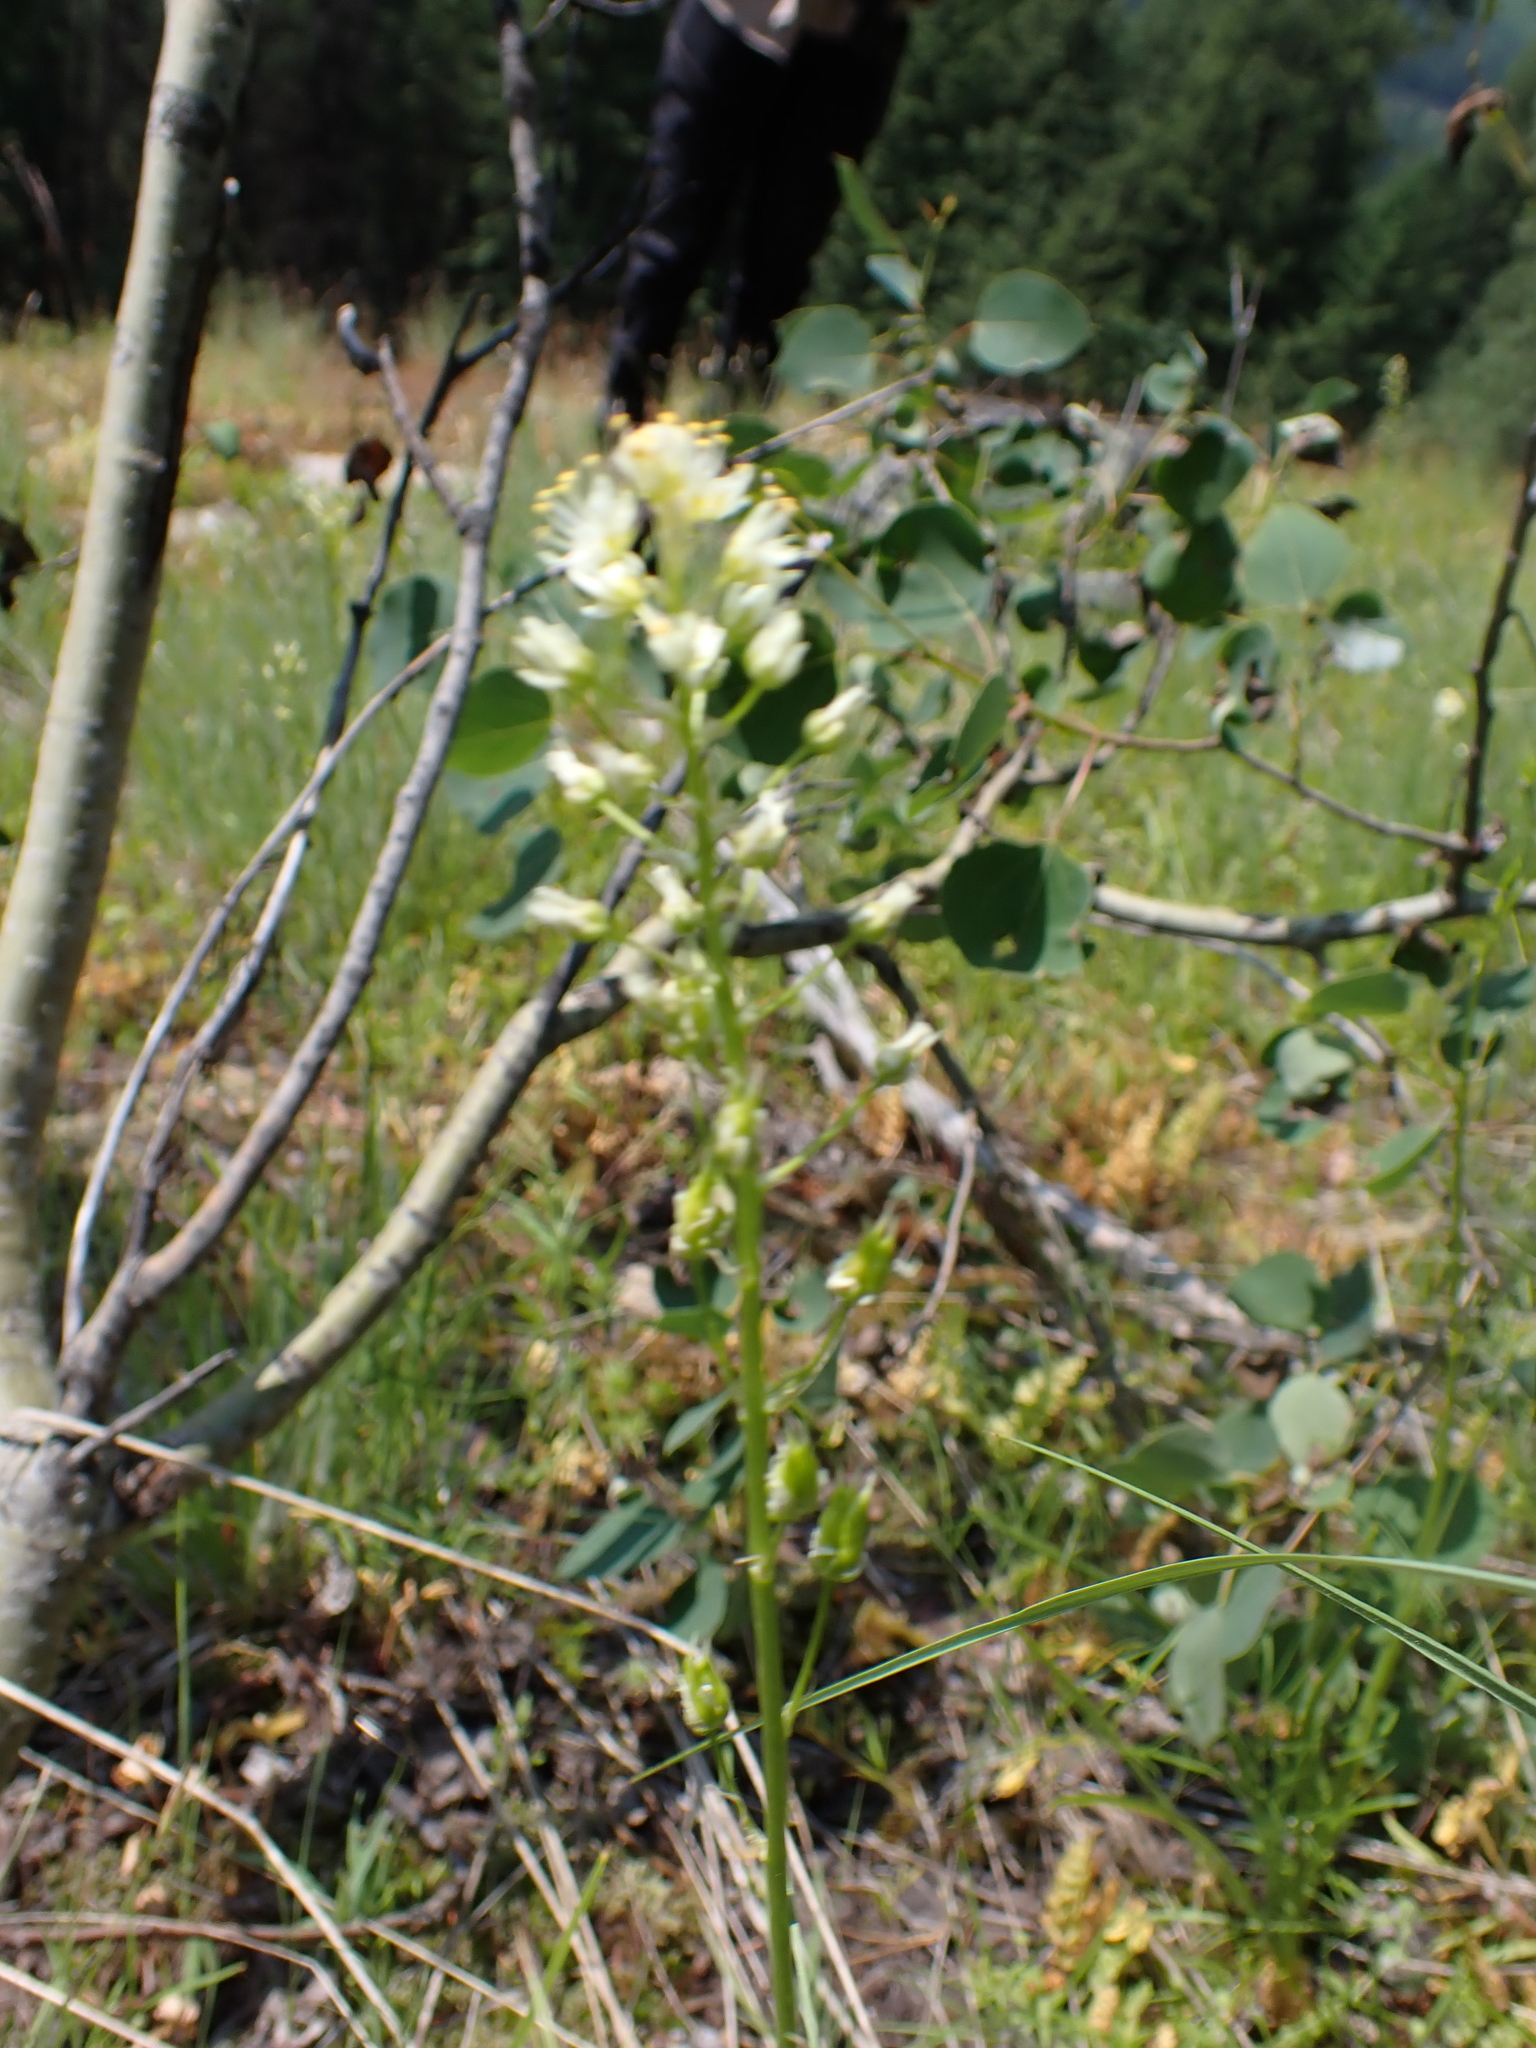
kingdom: Plantae
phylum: Tracheophyta
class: Liliopsida
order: Liliales
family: Melanthiaceae
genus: Toxicoscordion
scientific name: Toxicoscordion venenosum
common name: Meadow death camas
